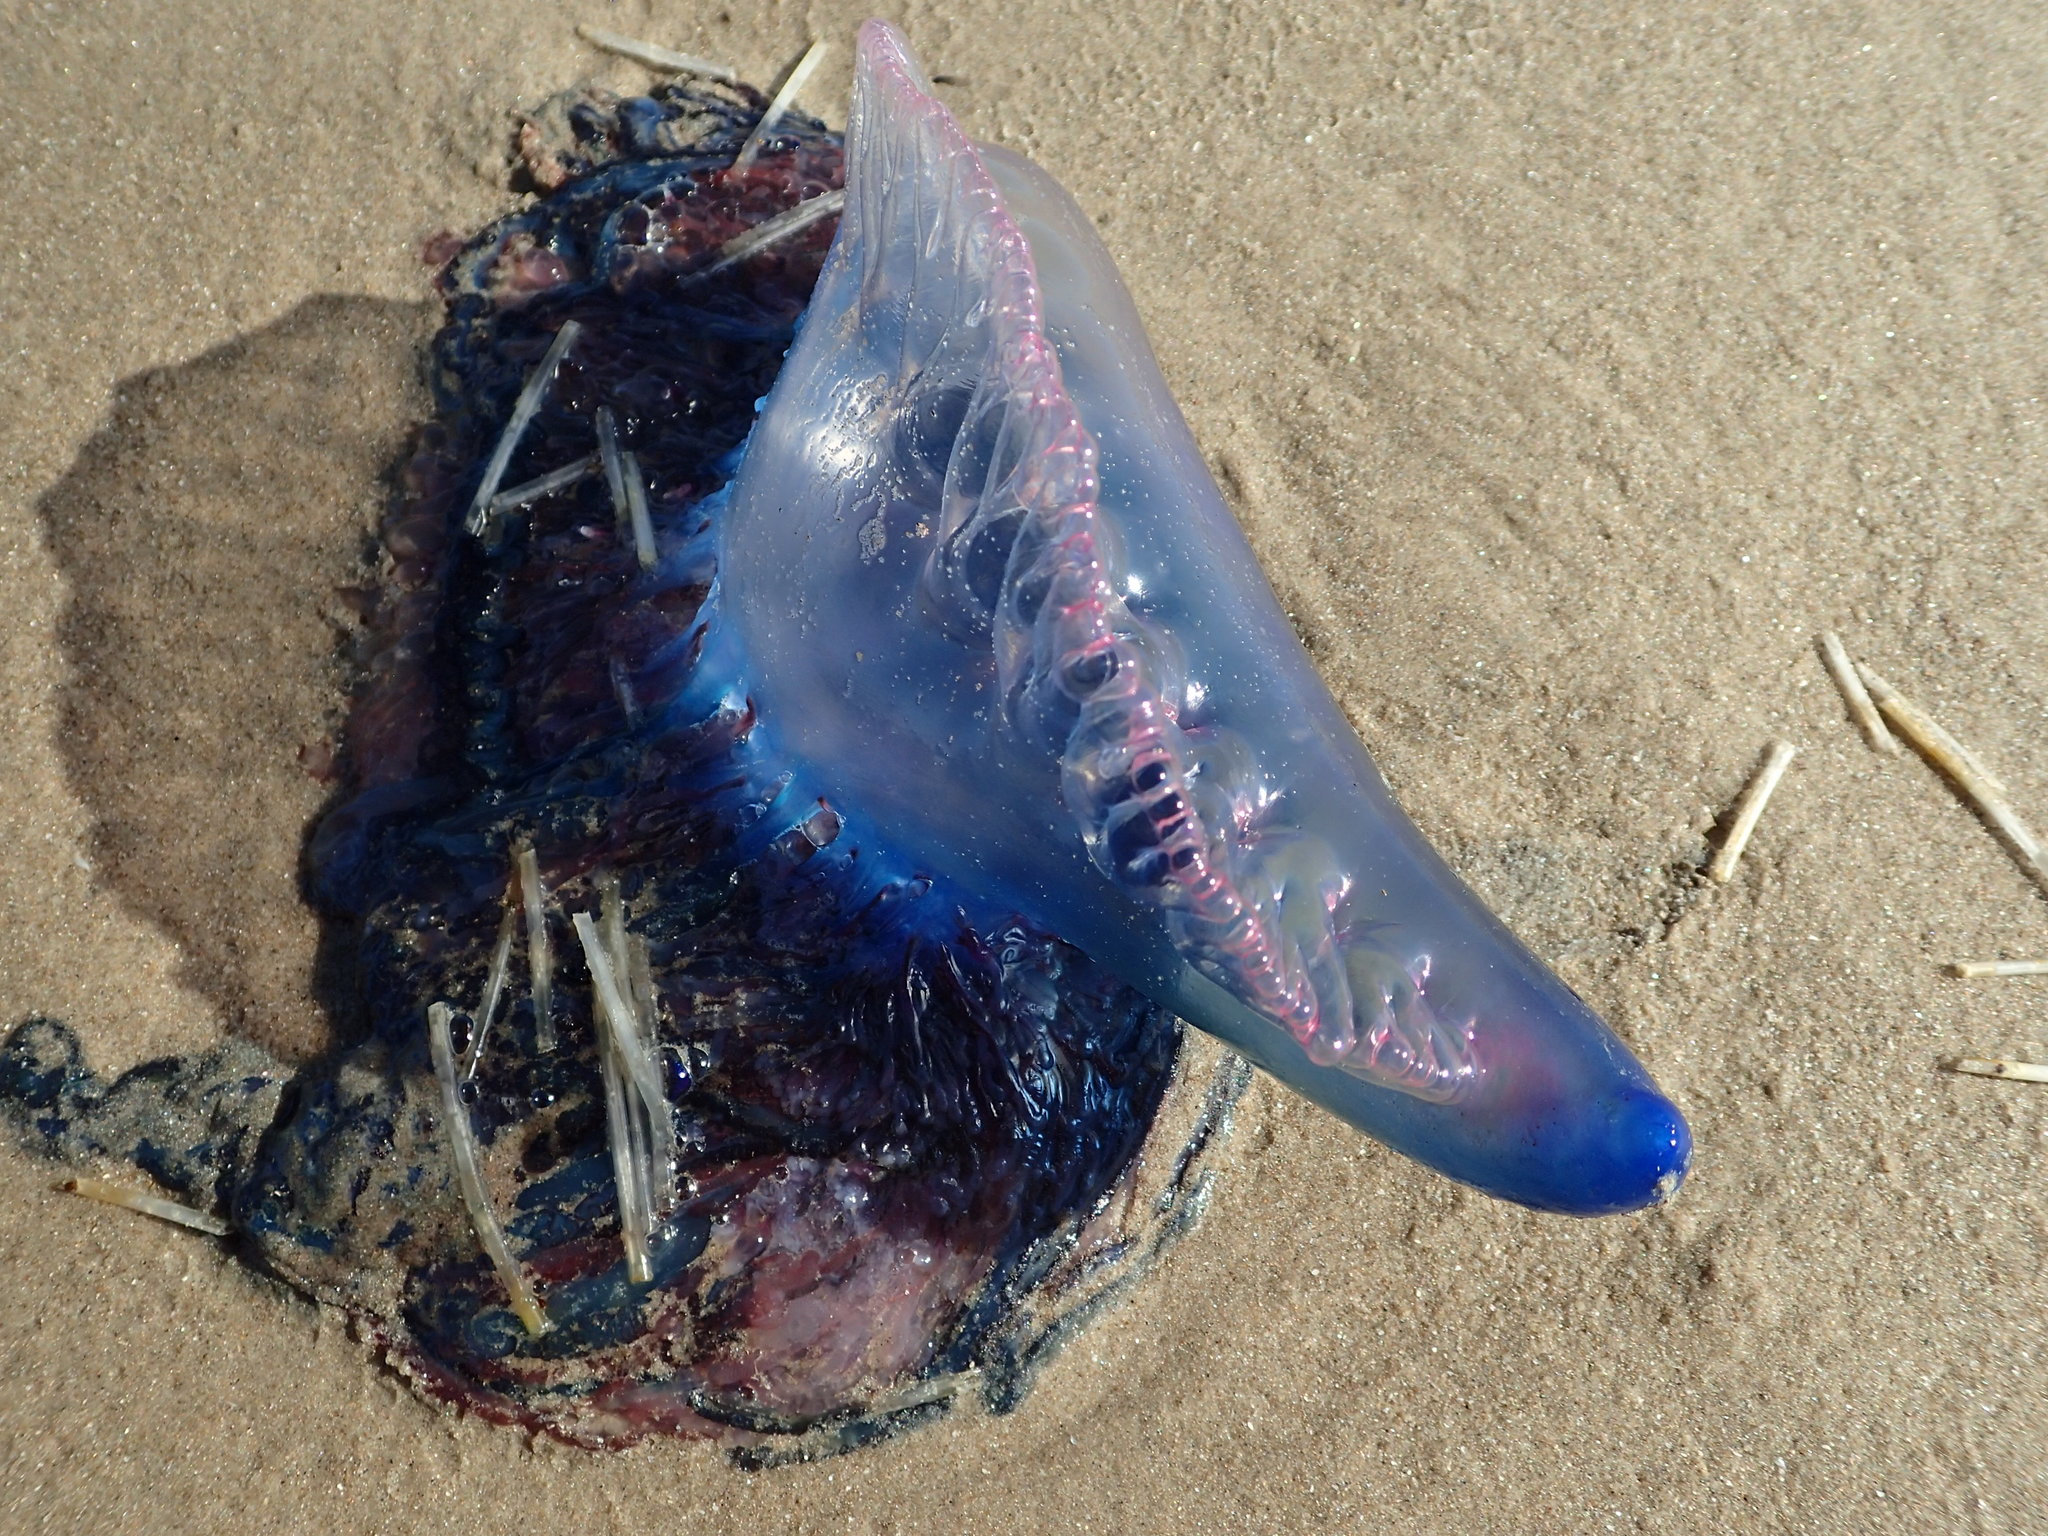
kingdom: Animalia
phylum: Cnidaria
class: Hydrozoa
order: Siphonophorae
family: Physaliidae
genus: Physalia
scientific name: Physalia physalis
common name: Portuguese man-of-war
